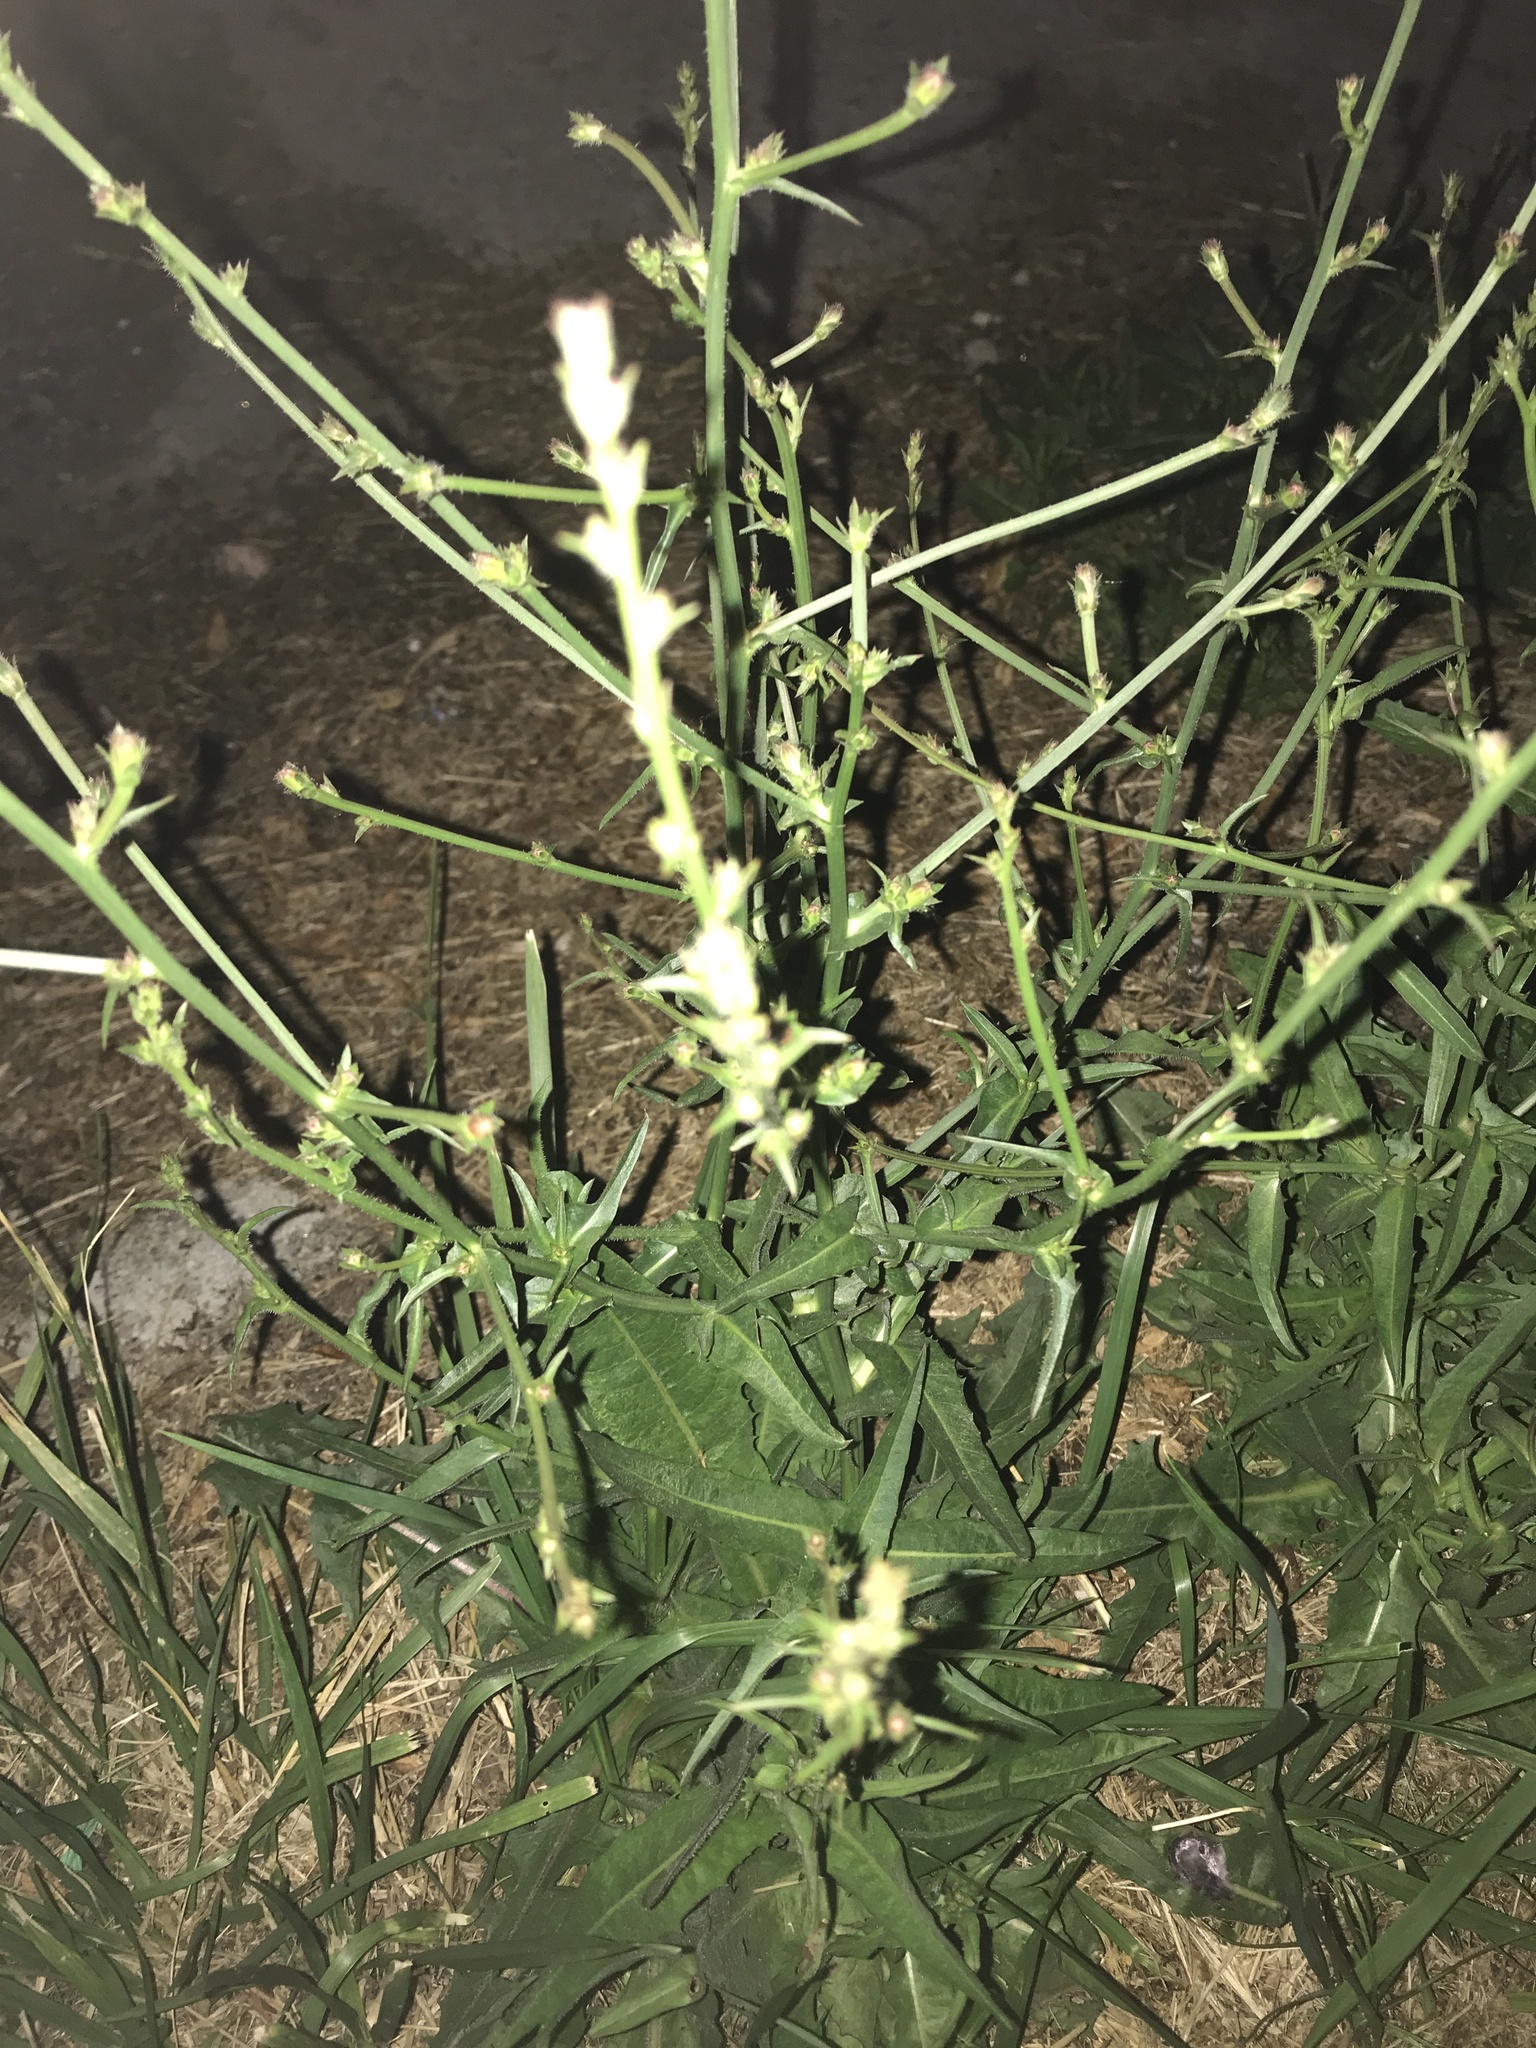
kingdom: Plantae
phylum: Tracheophyta
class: Magnoliopsida
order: Asterales
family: Asteraceae
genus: Cichorium
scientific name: Cichorium intybus
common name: Chicory
